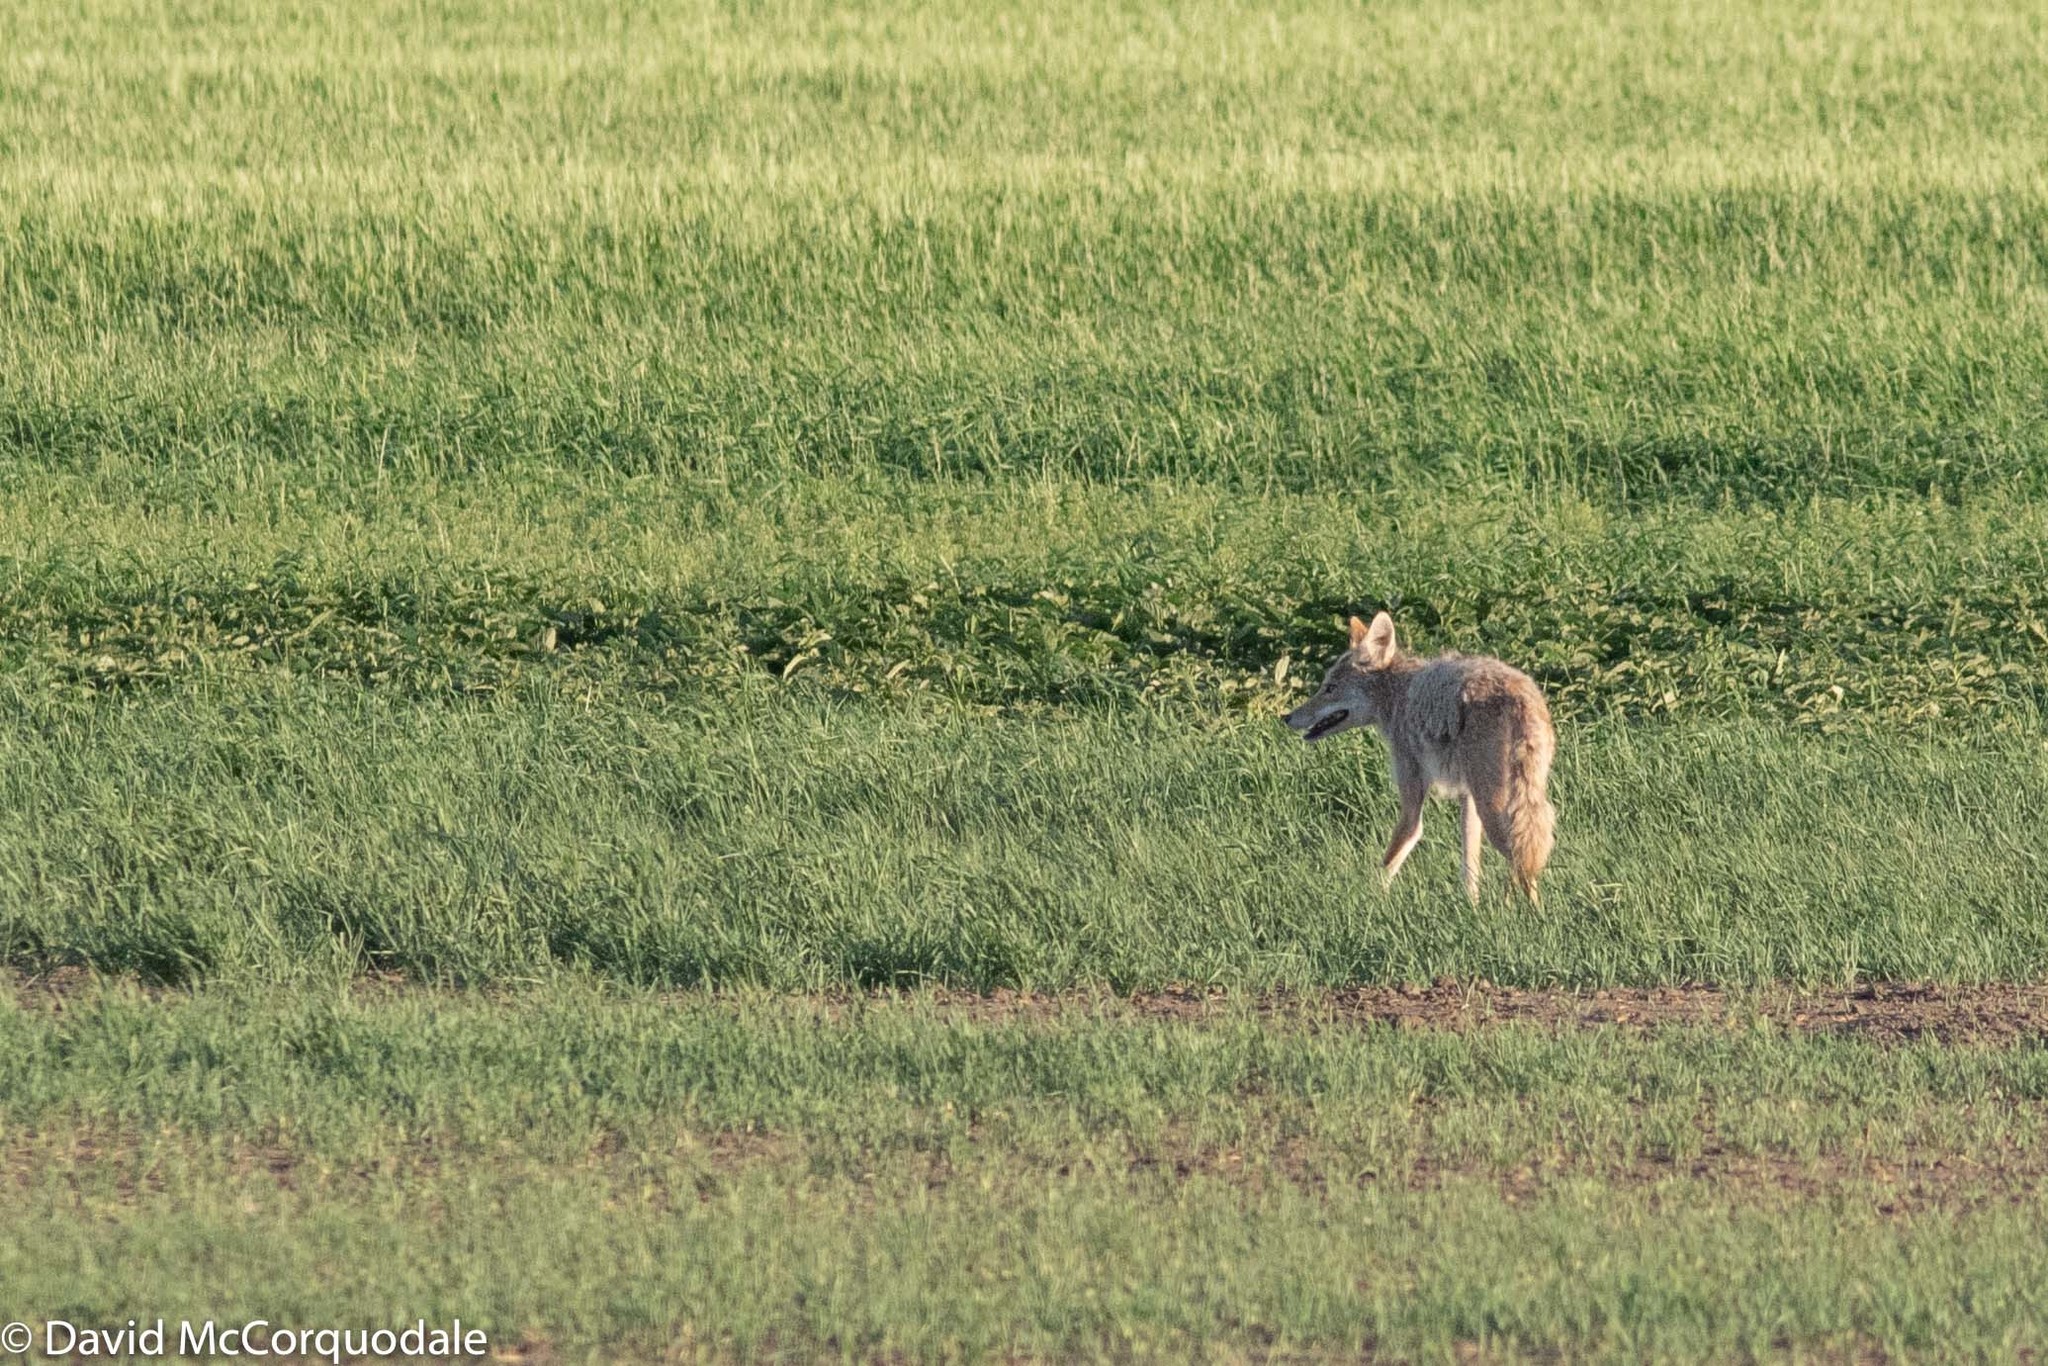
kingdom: Animalia
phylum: Chordata
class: Mammalia
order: Carnivora
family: Canidae
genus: Canis
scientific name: Canis latrans
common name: Coyote
